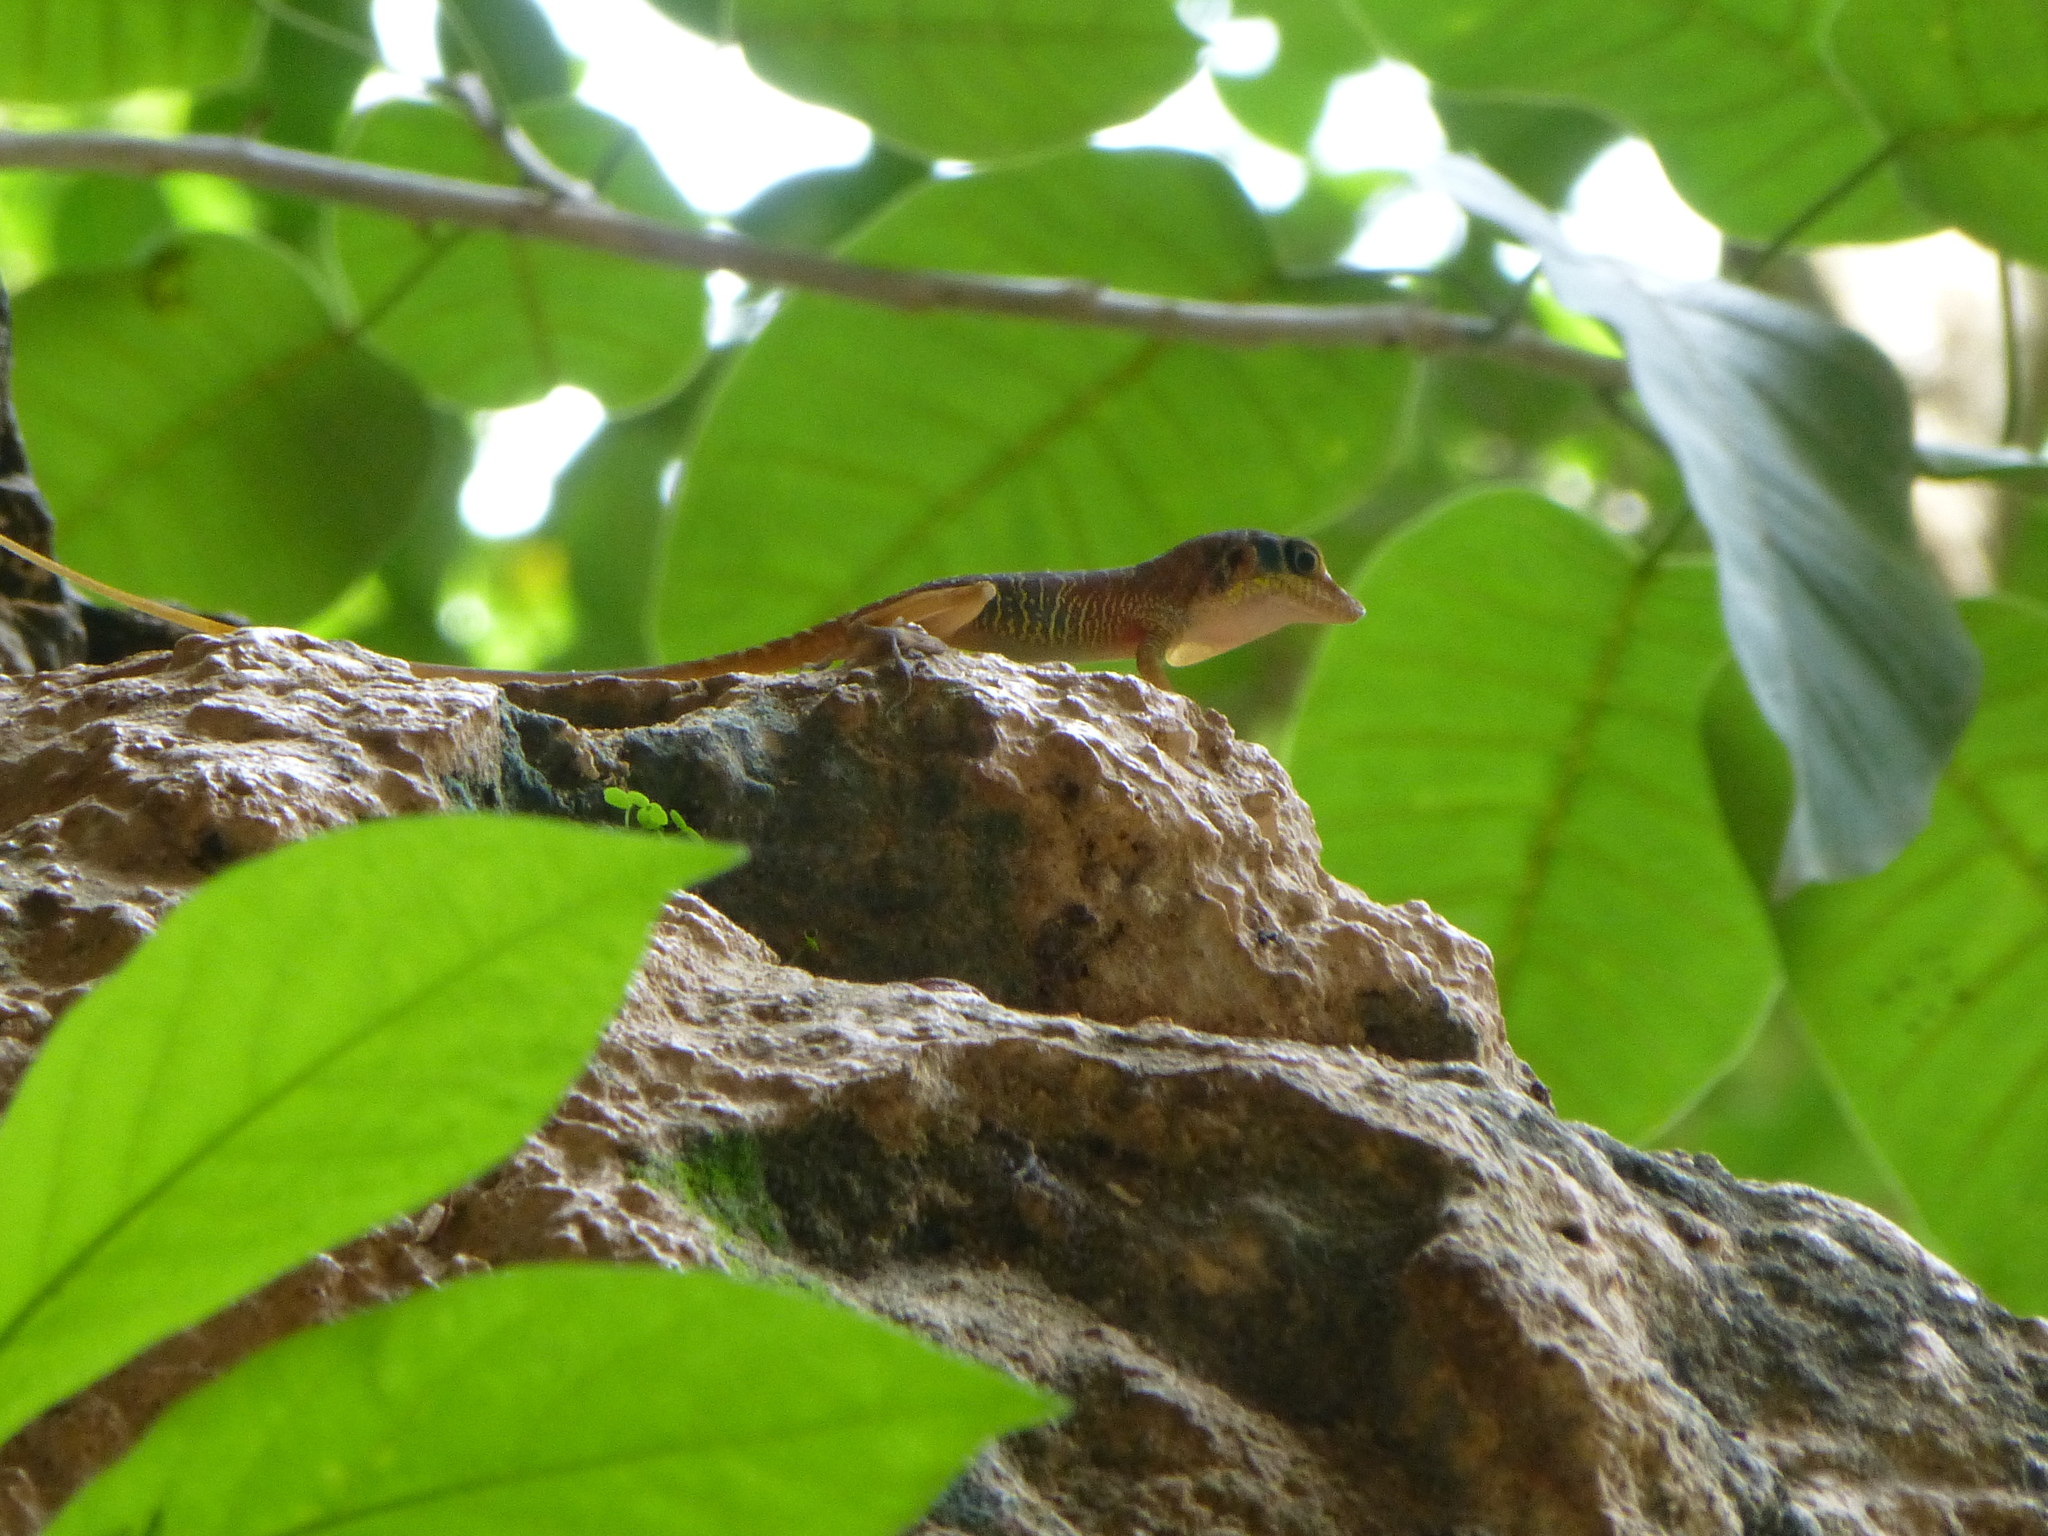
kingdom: Animalia
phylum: Chordata
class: Squamata
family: Dactyloidae
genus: Anolis
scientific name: Anolis bartschi
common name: West cuban anole
